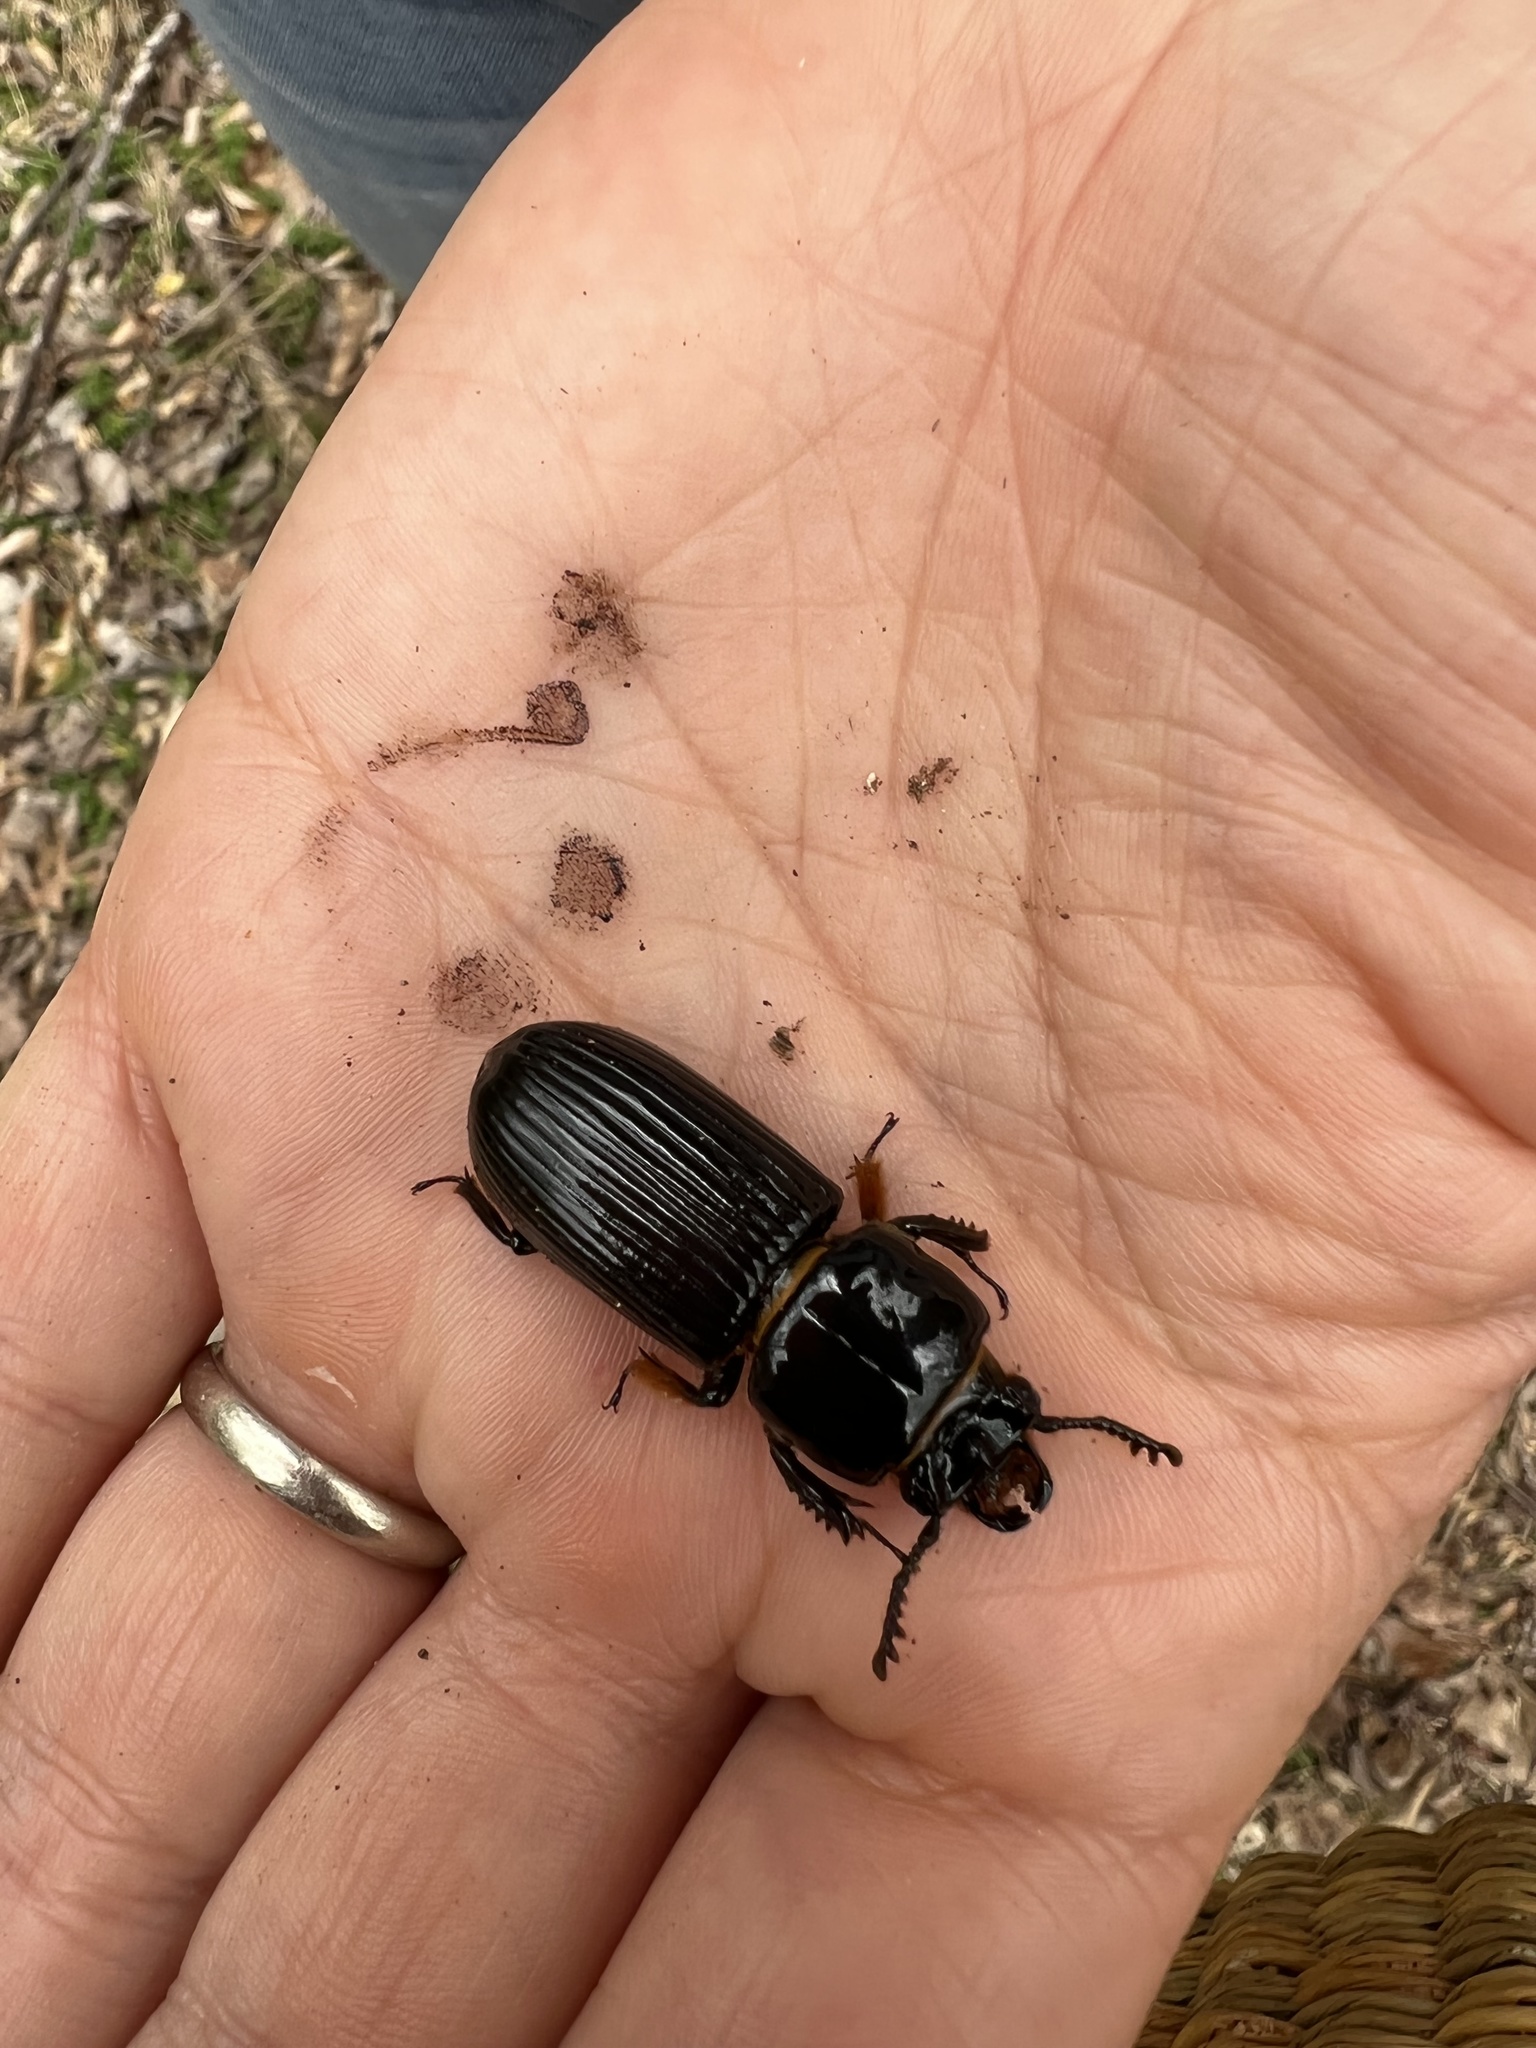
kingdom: Animalia
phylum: Arthropoda
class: Insecta
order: Coleoptera
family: Passalidae
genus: Odontotaenius
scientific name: Odontotaenius disjunctus
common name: Patent leather beetle
